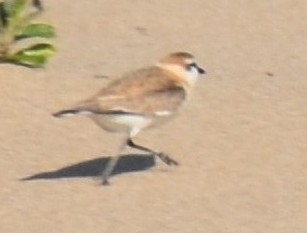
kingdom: Animalia
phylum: Chordata
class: Aves
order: Charadriiformes
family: Charadriidae
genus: Anarhynchus
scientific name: Anarhynchus
